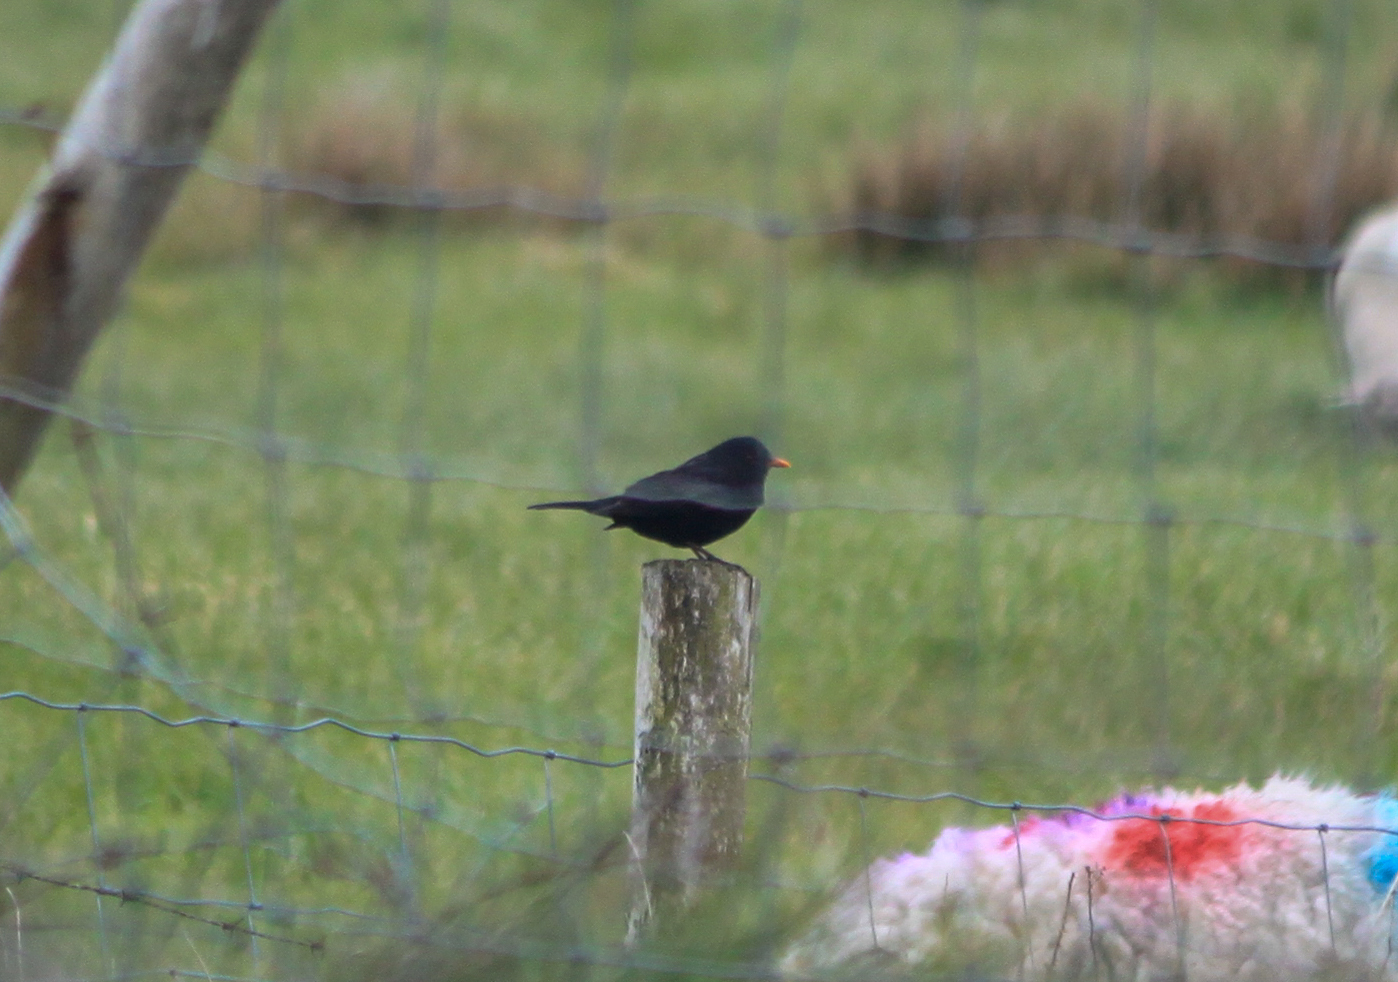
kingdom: Animalia
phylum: Chordata
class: Aves
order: Passeriformes
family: Turdidae
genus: Turdus
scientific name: Turdus merula
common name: Common blackbird
